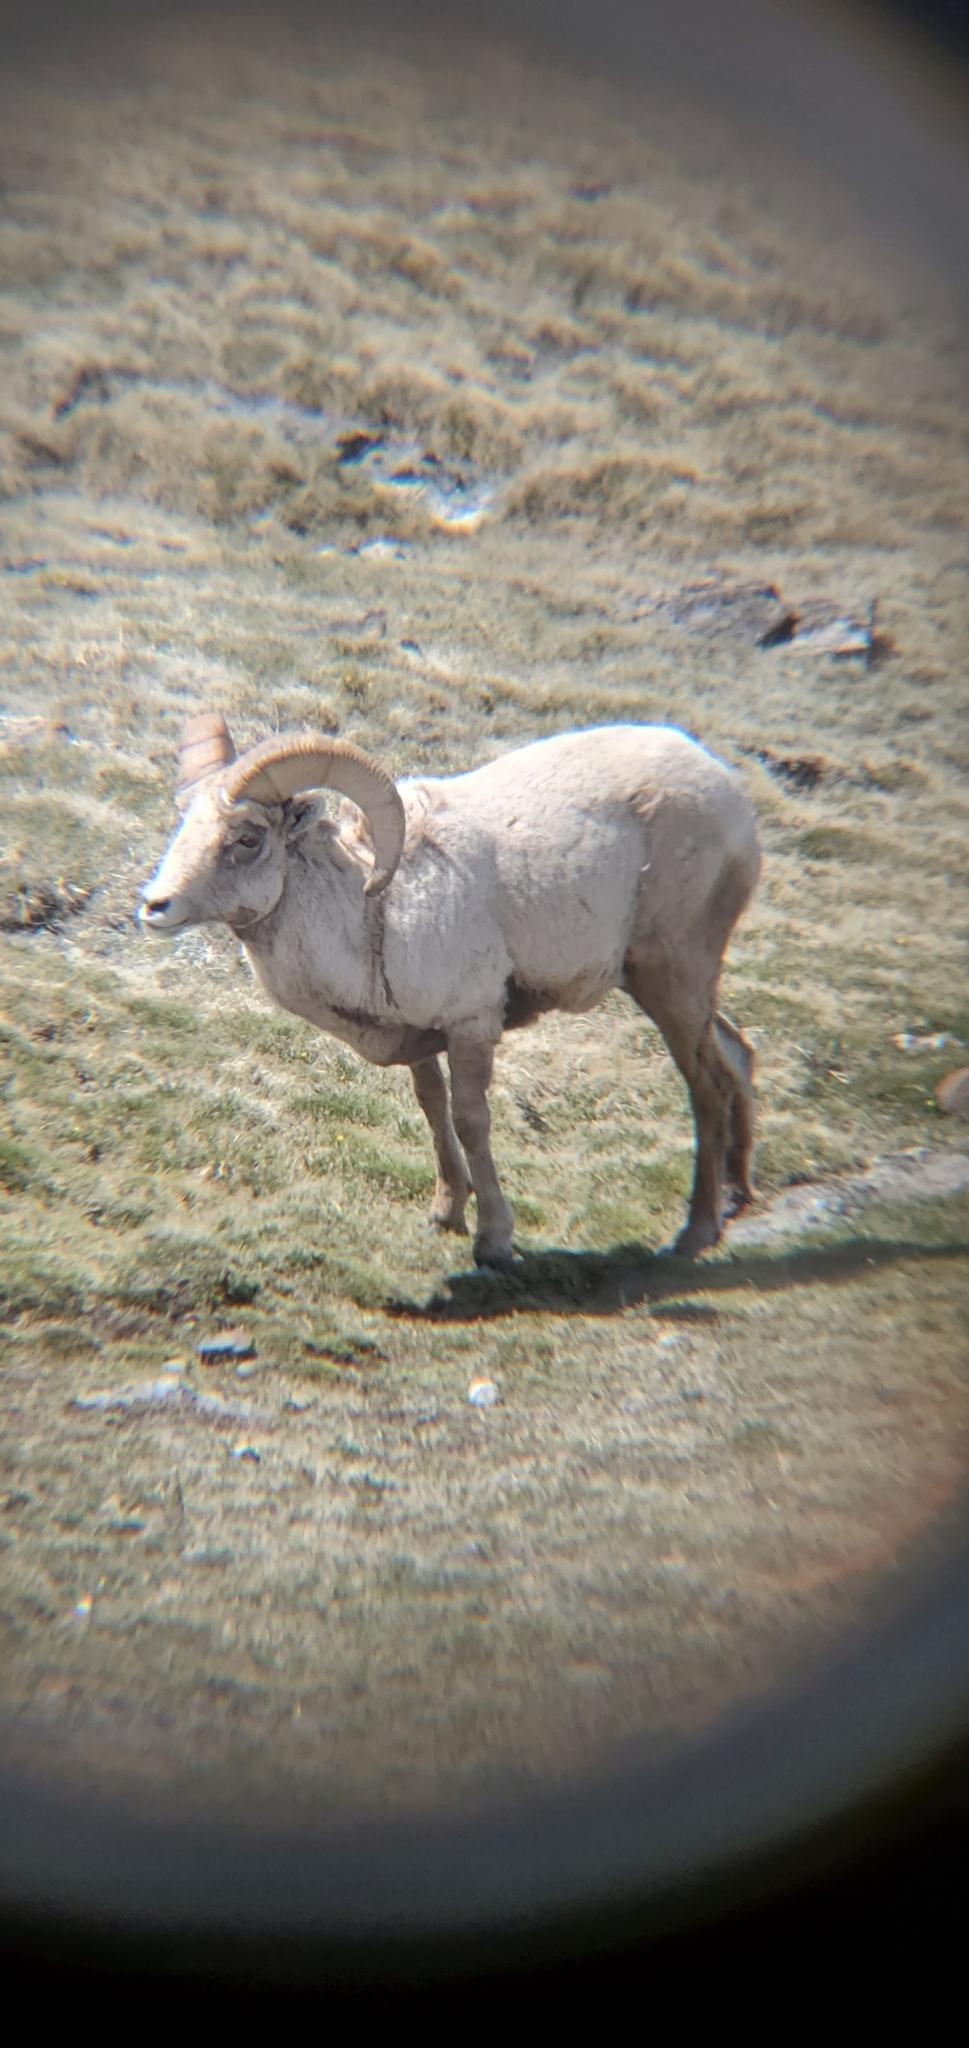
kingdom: Animalia
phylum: Chordata
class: Mammalia
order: Artiodactyla
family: Bovidae
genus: Ovis
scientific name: Ovis canadensis
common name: Bighorn sheep
